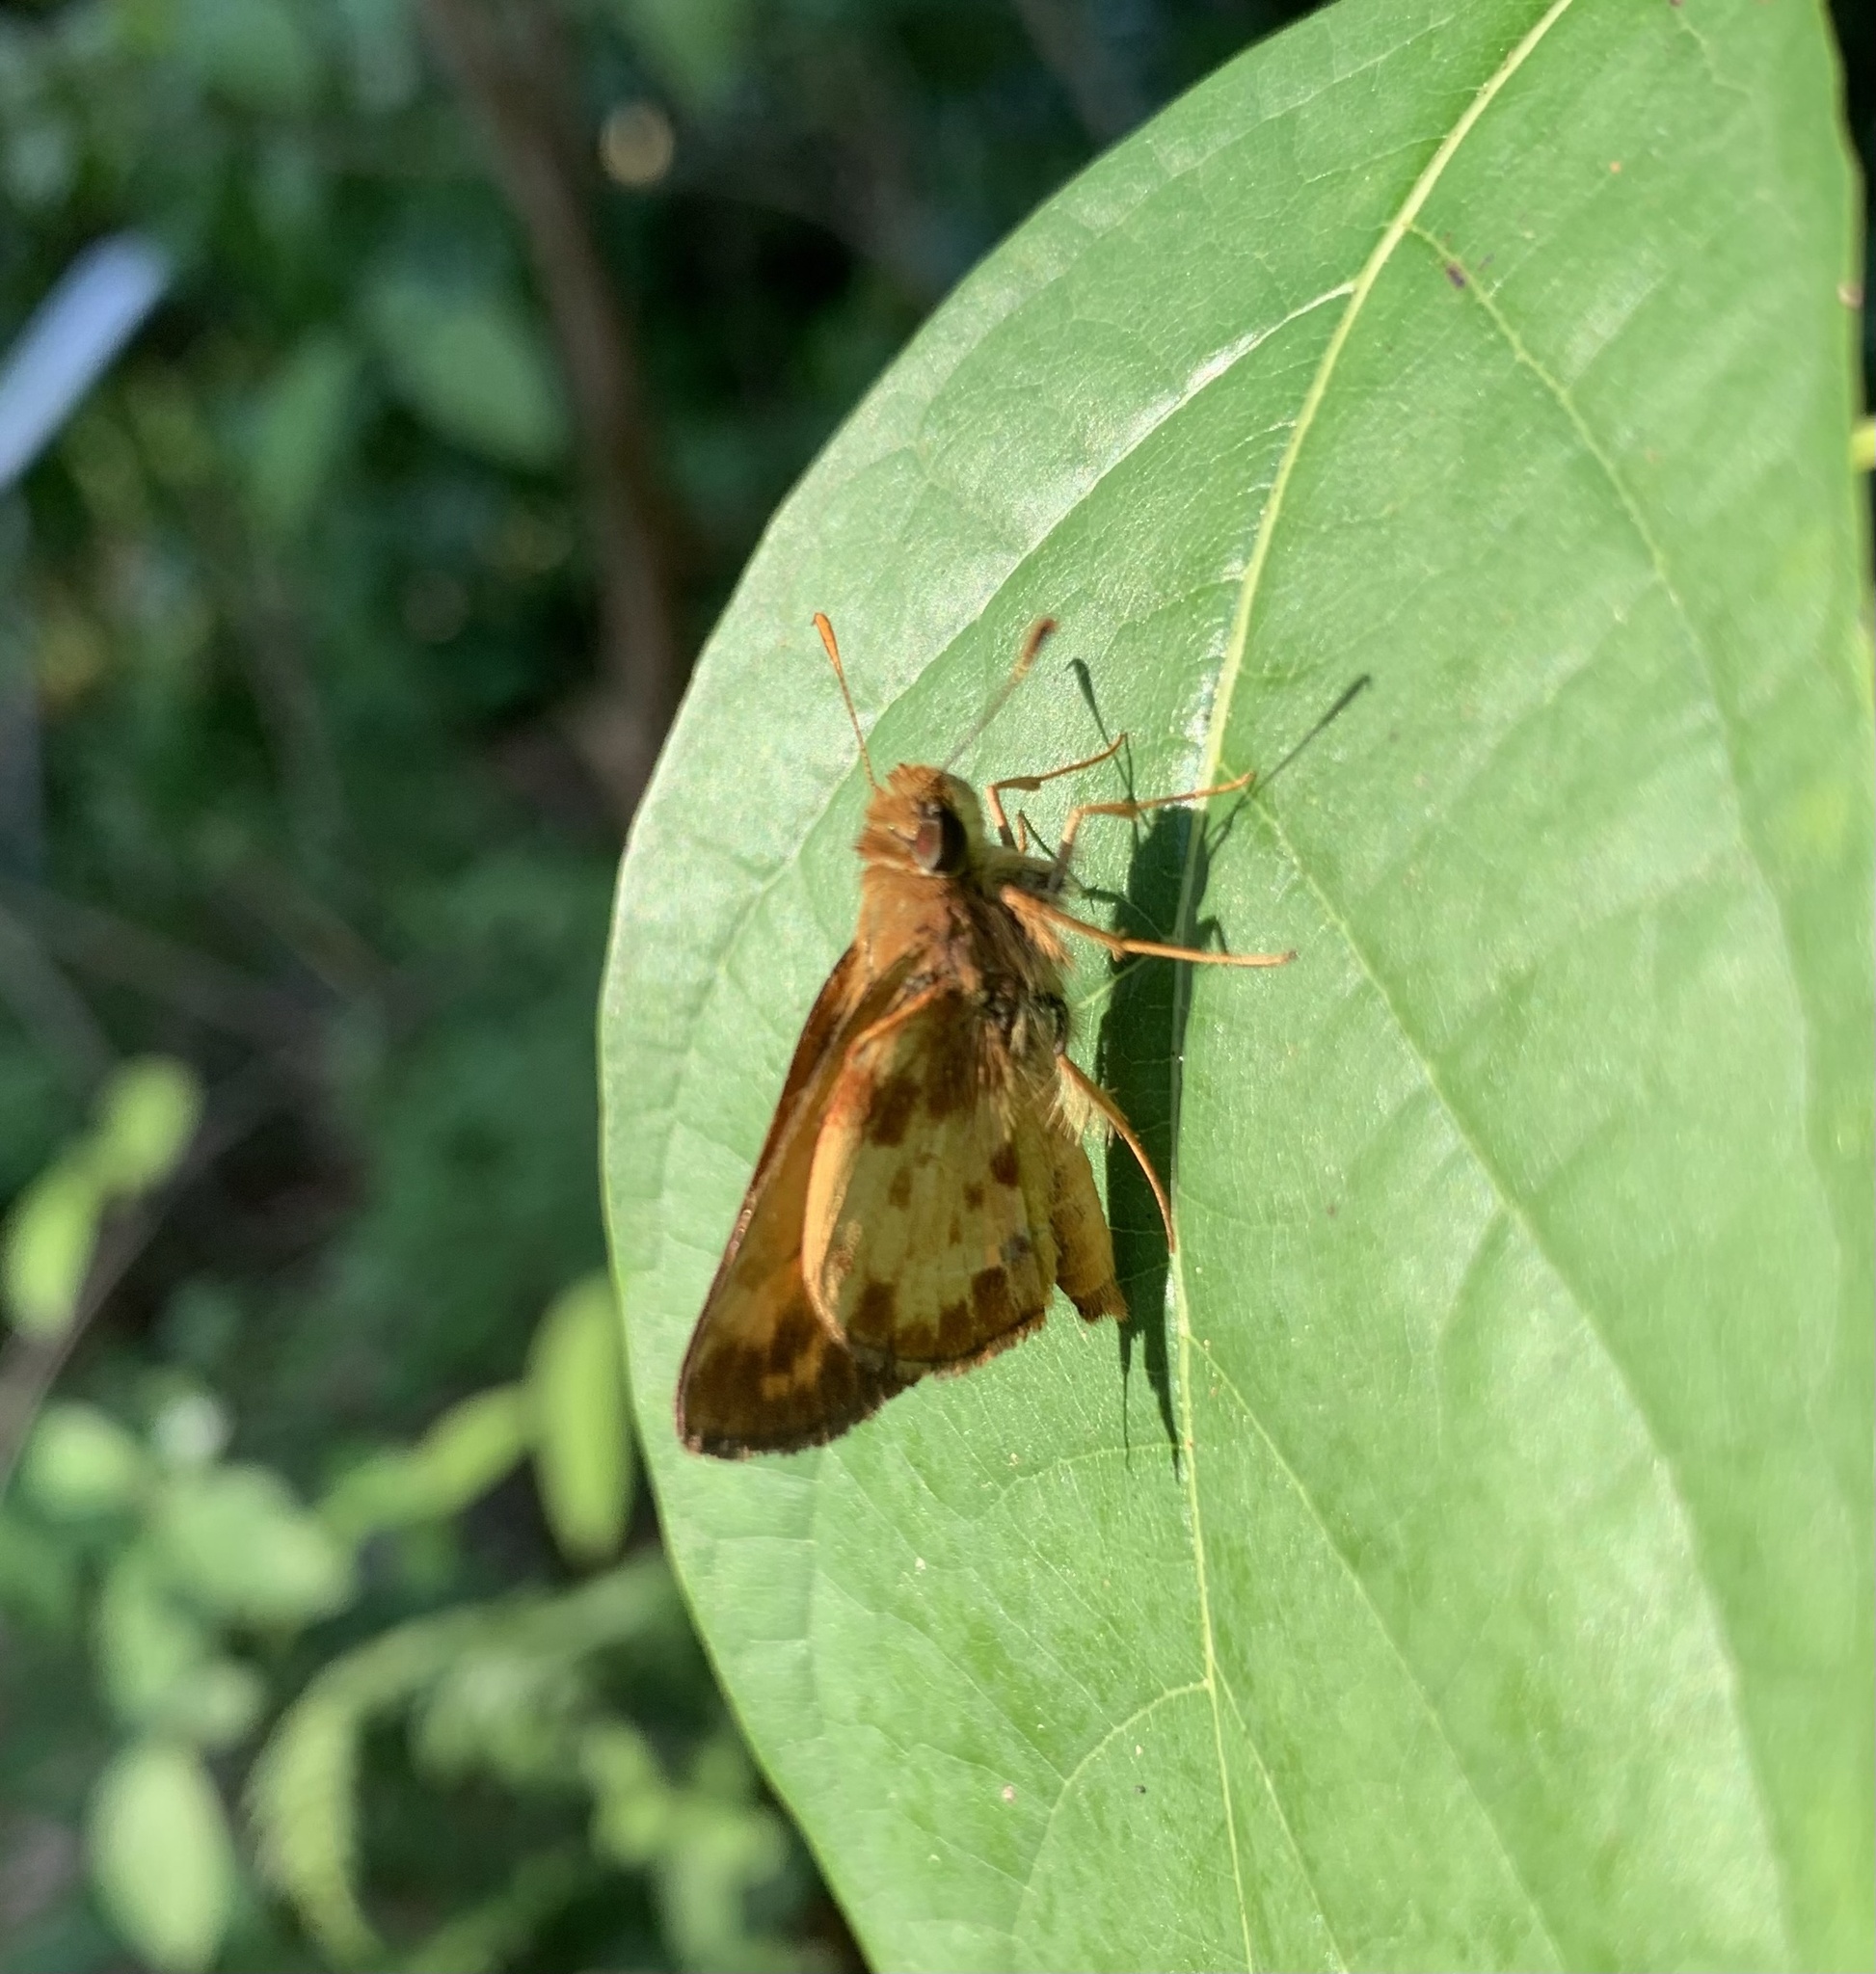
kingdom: Animalia
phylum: Arthropoda
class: Insecta
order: Lepidoptera
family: Hesperiidae
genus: Lon
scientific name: Lon zabulon
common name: Zabulon skipper
